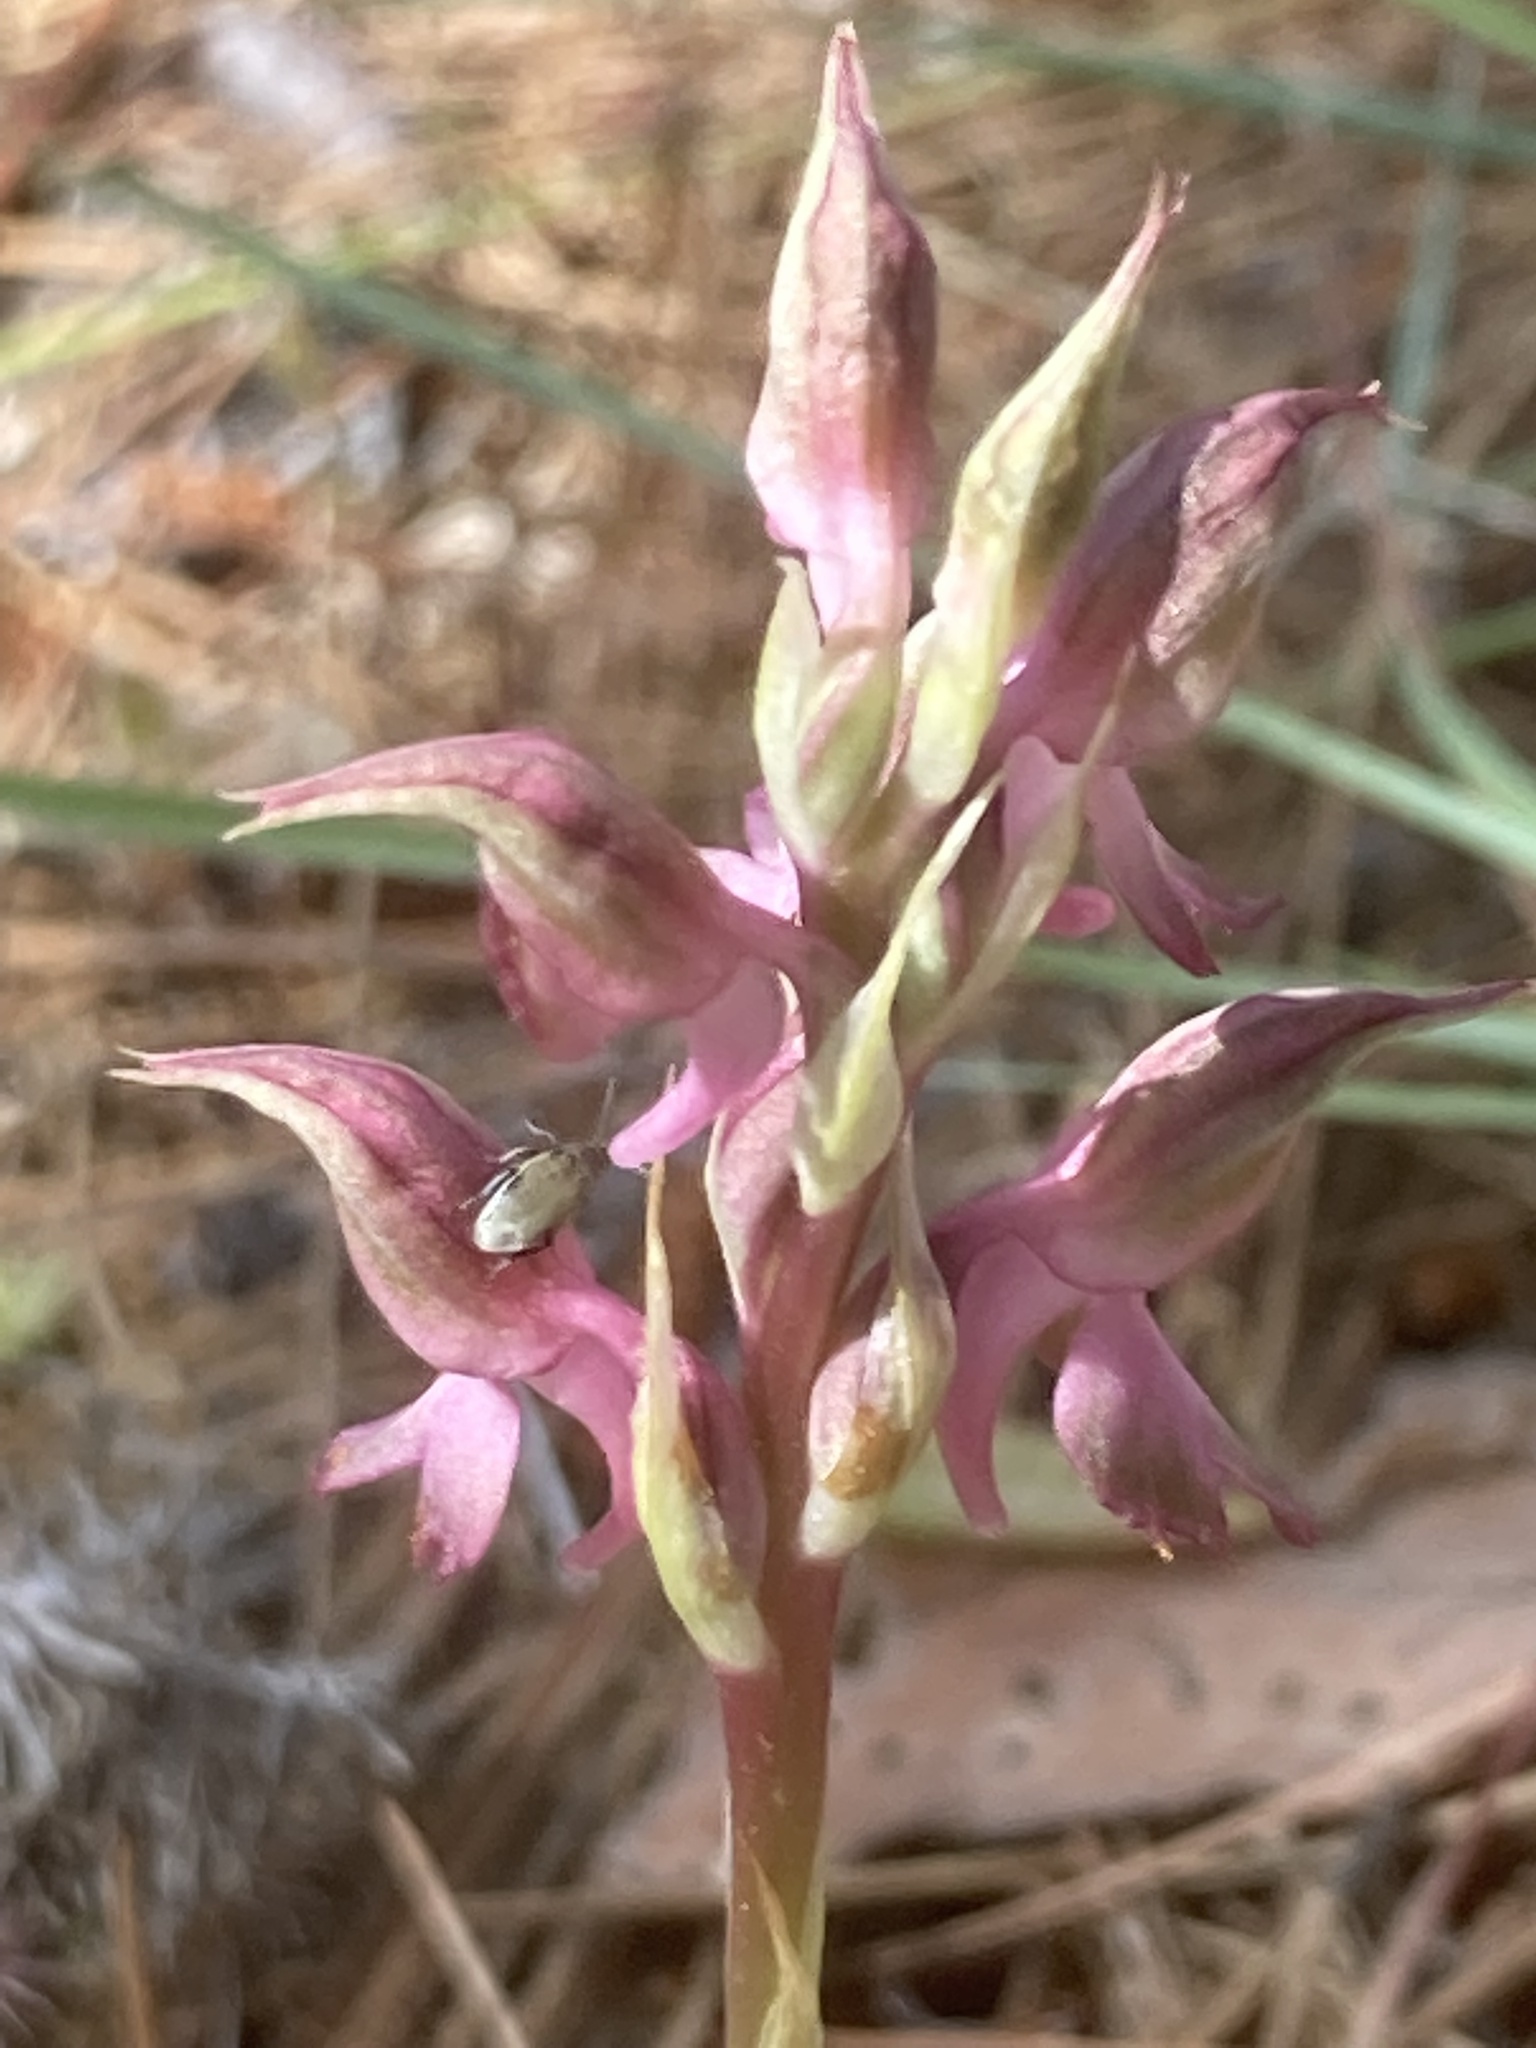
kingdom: Plantae
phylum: Tracheophyta
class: Liliopsida
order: Asparagales
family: Orchidaceae
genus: Anacamptis
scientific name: Anacamptis sancta
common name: Holy orchid
